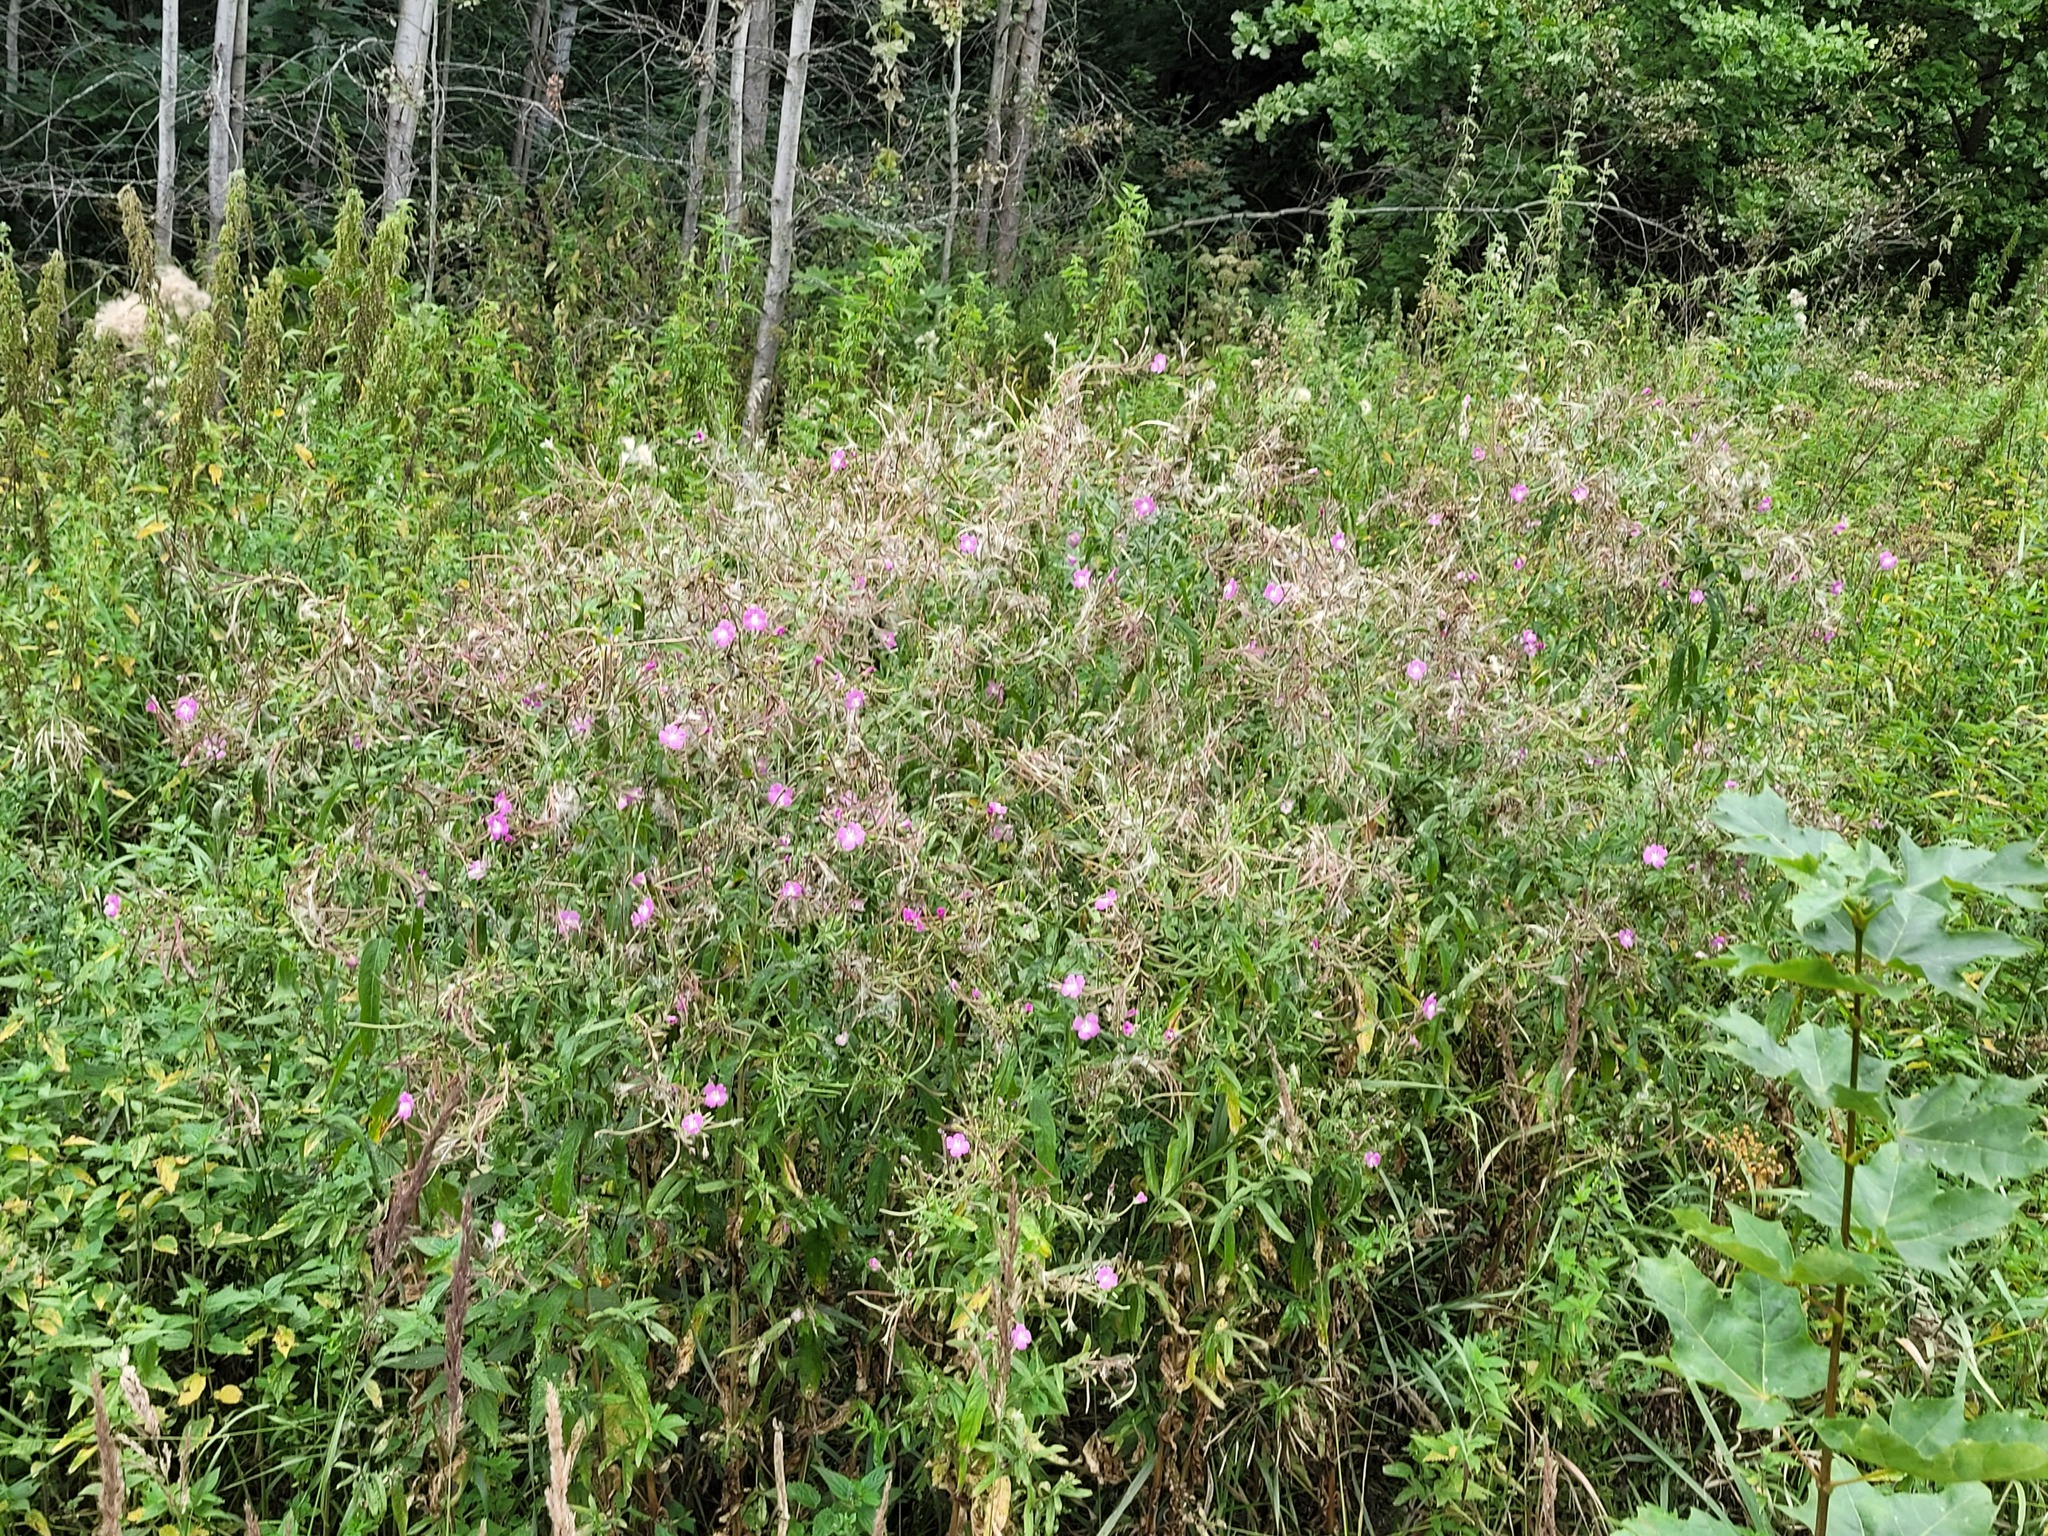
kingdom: Plantae
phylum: Tracheophyta
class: Magnoliopsida
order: Myrtales
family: Onagraceae
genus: Epilobium
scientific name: Epilobium hirsutum
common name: Great willowherb
